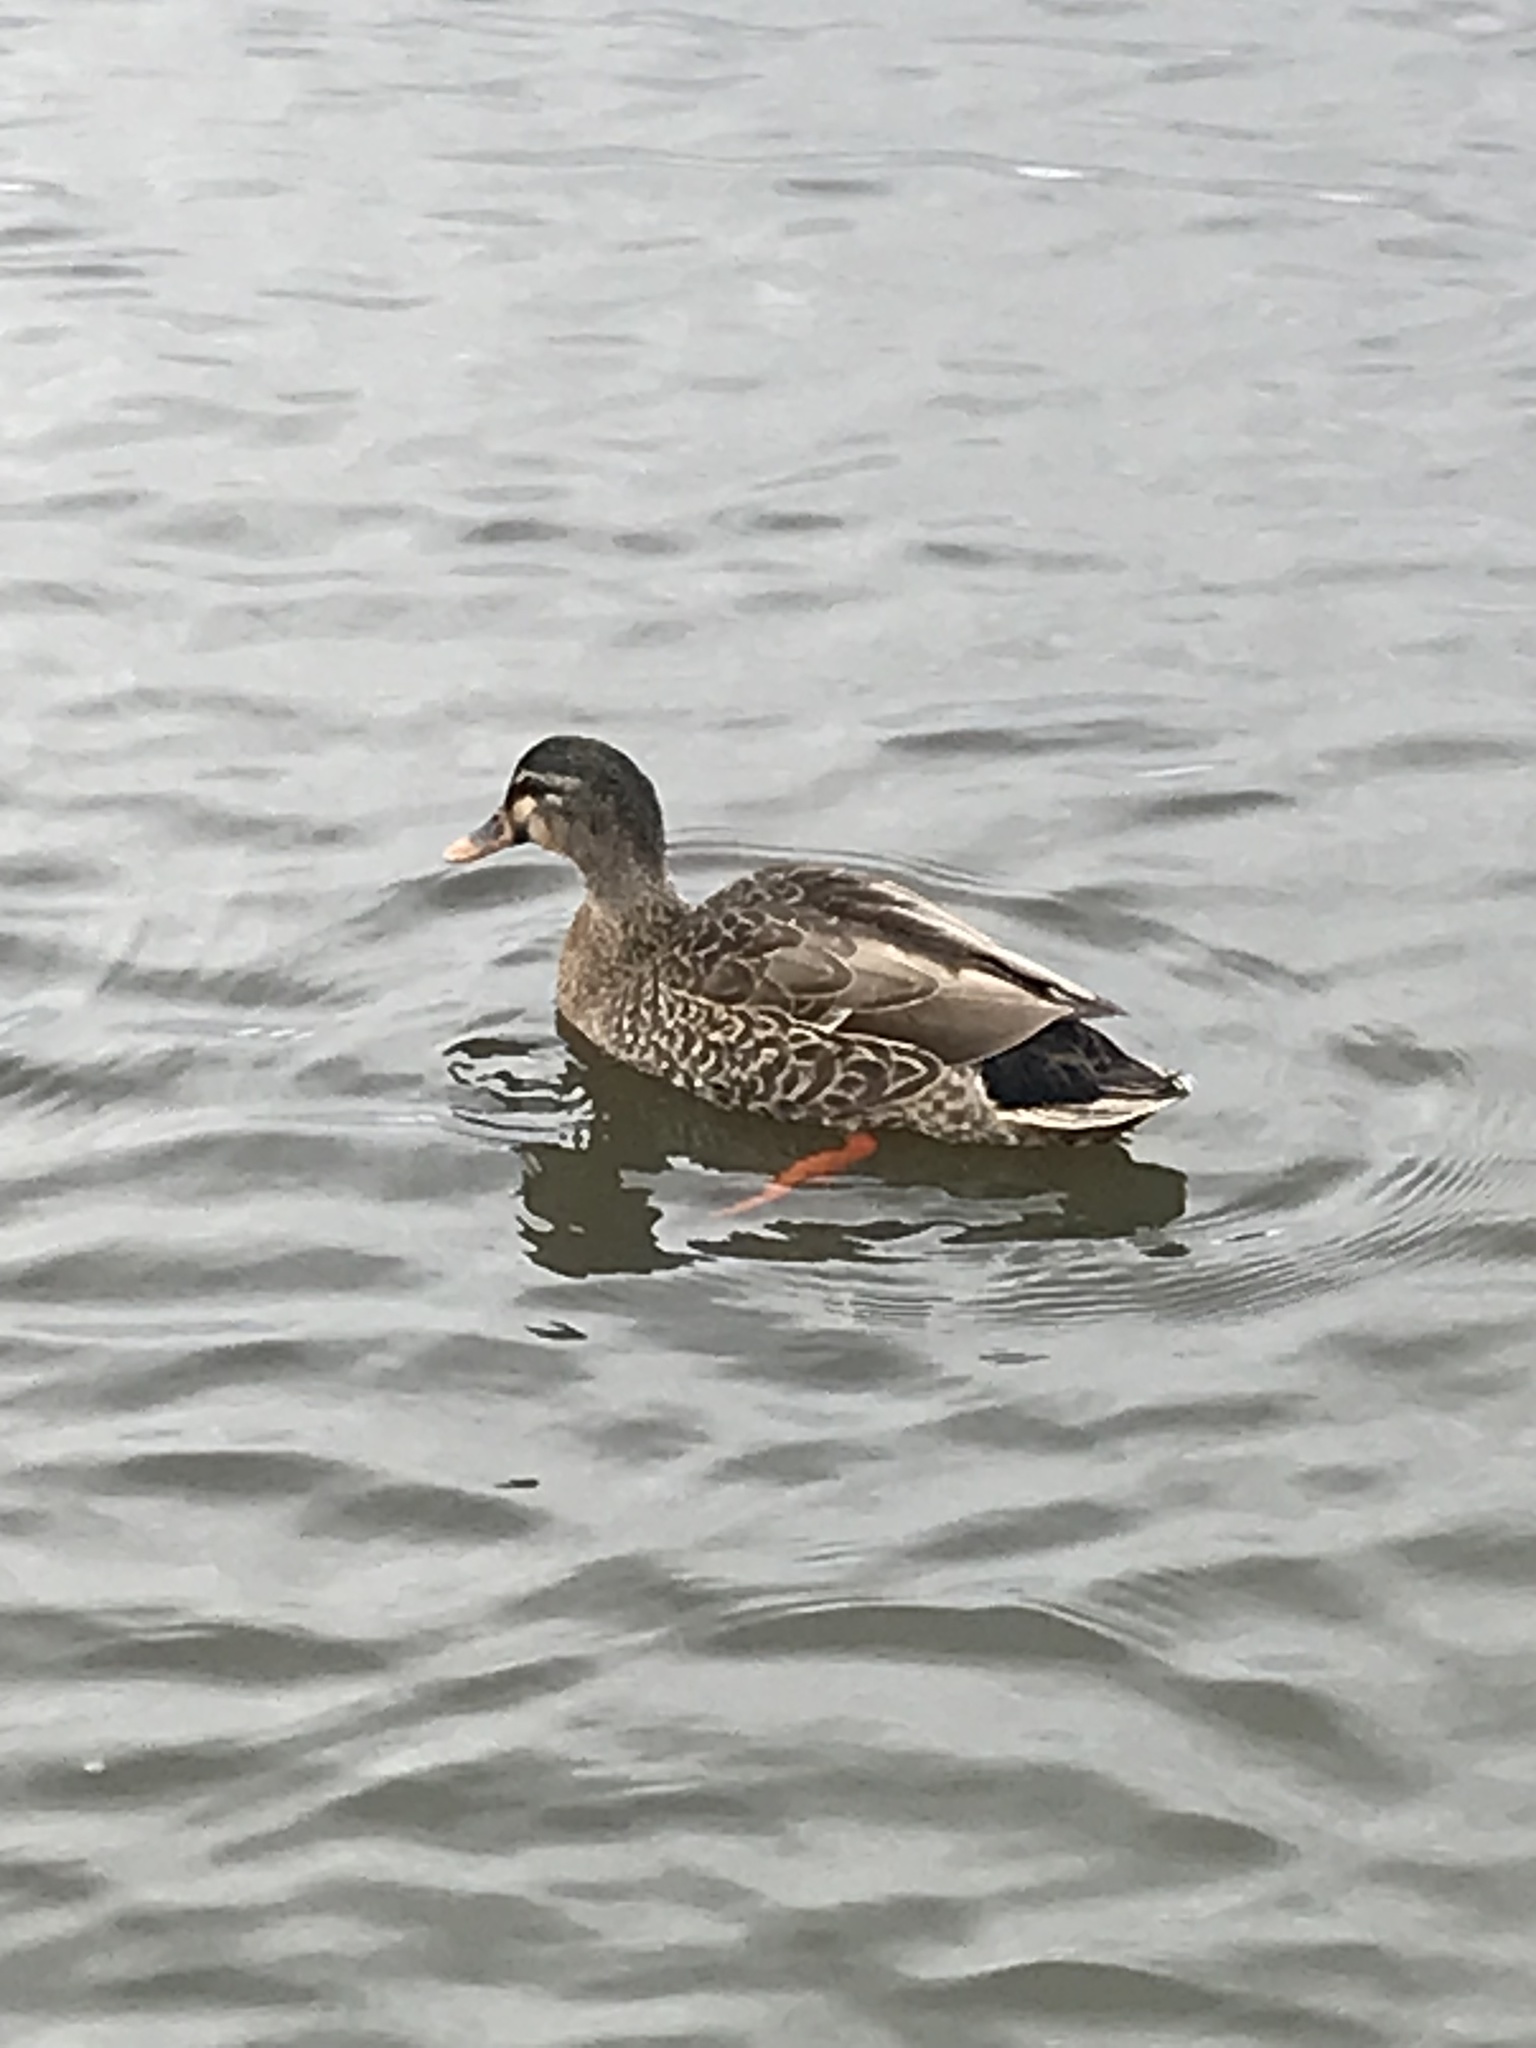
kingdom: Animalia
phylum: Chordata
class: Aves
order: Anseriformes
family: Anatidae
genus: Anas
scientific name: Anas
